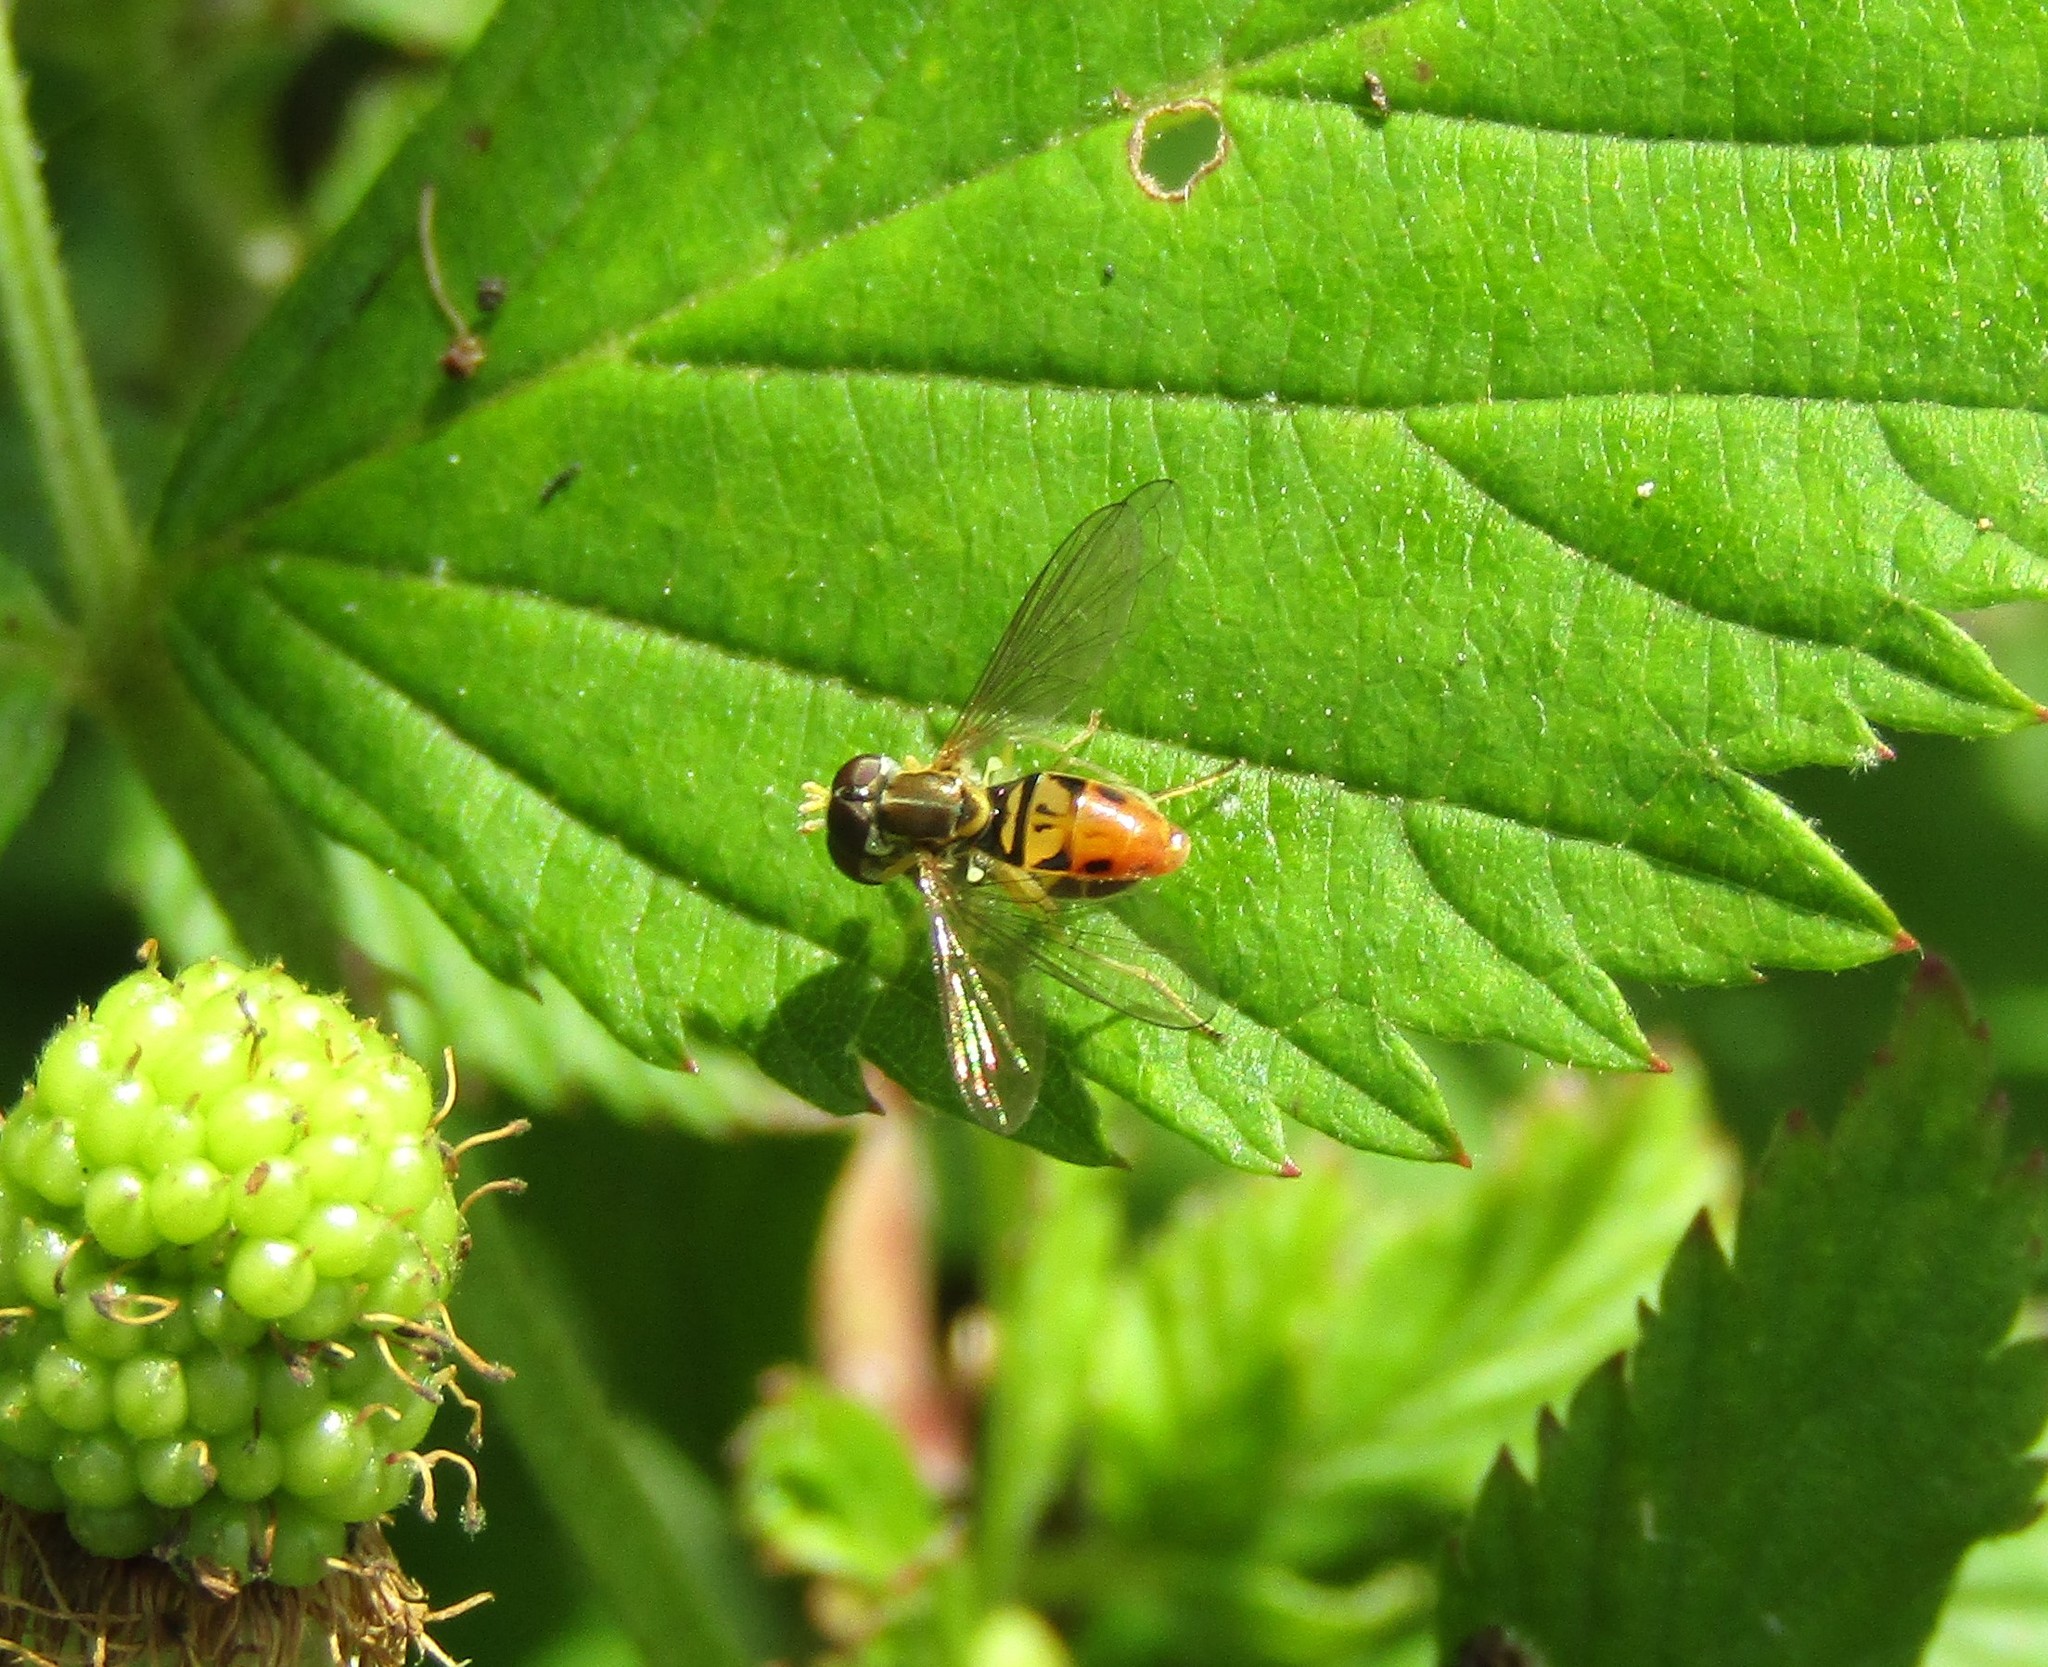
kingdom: Animalia
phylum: Arthropoda
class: Insecta
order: Diptera
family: Syrphidae
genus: Toxomerus
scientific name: Toxomerus marginatus
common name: Syrphid fly
